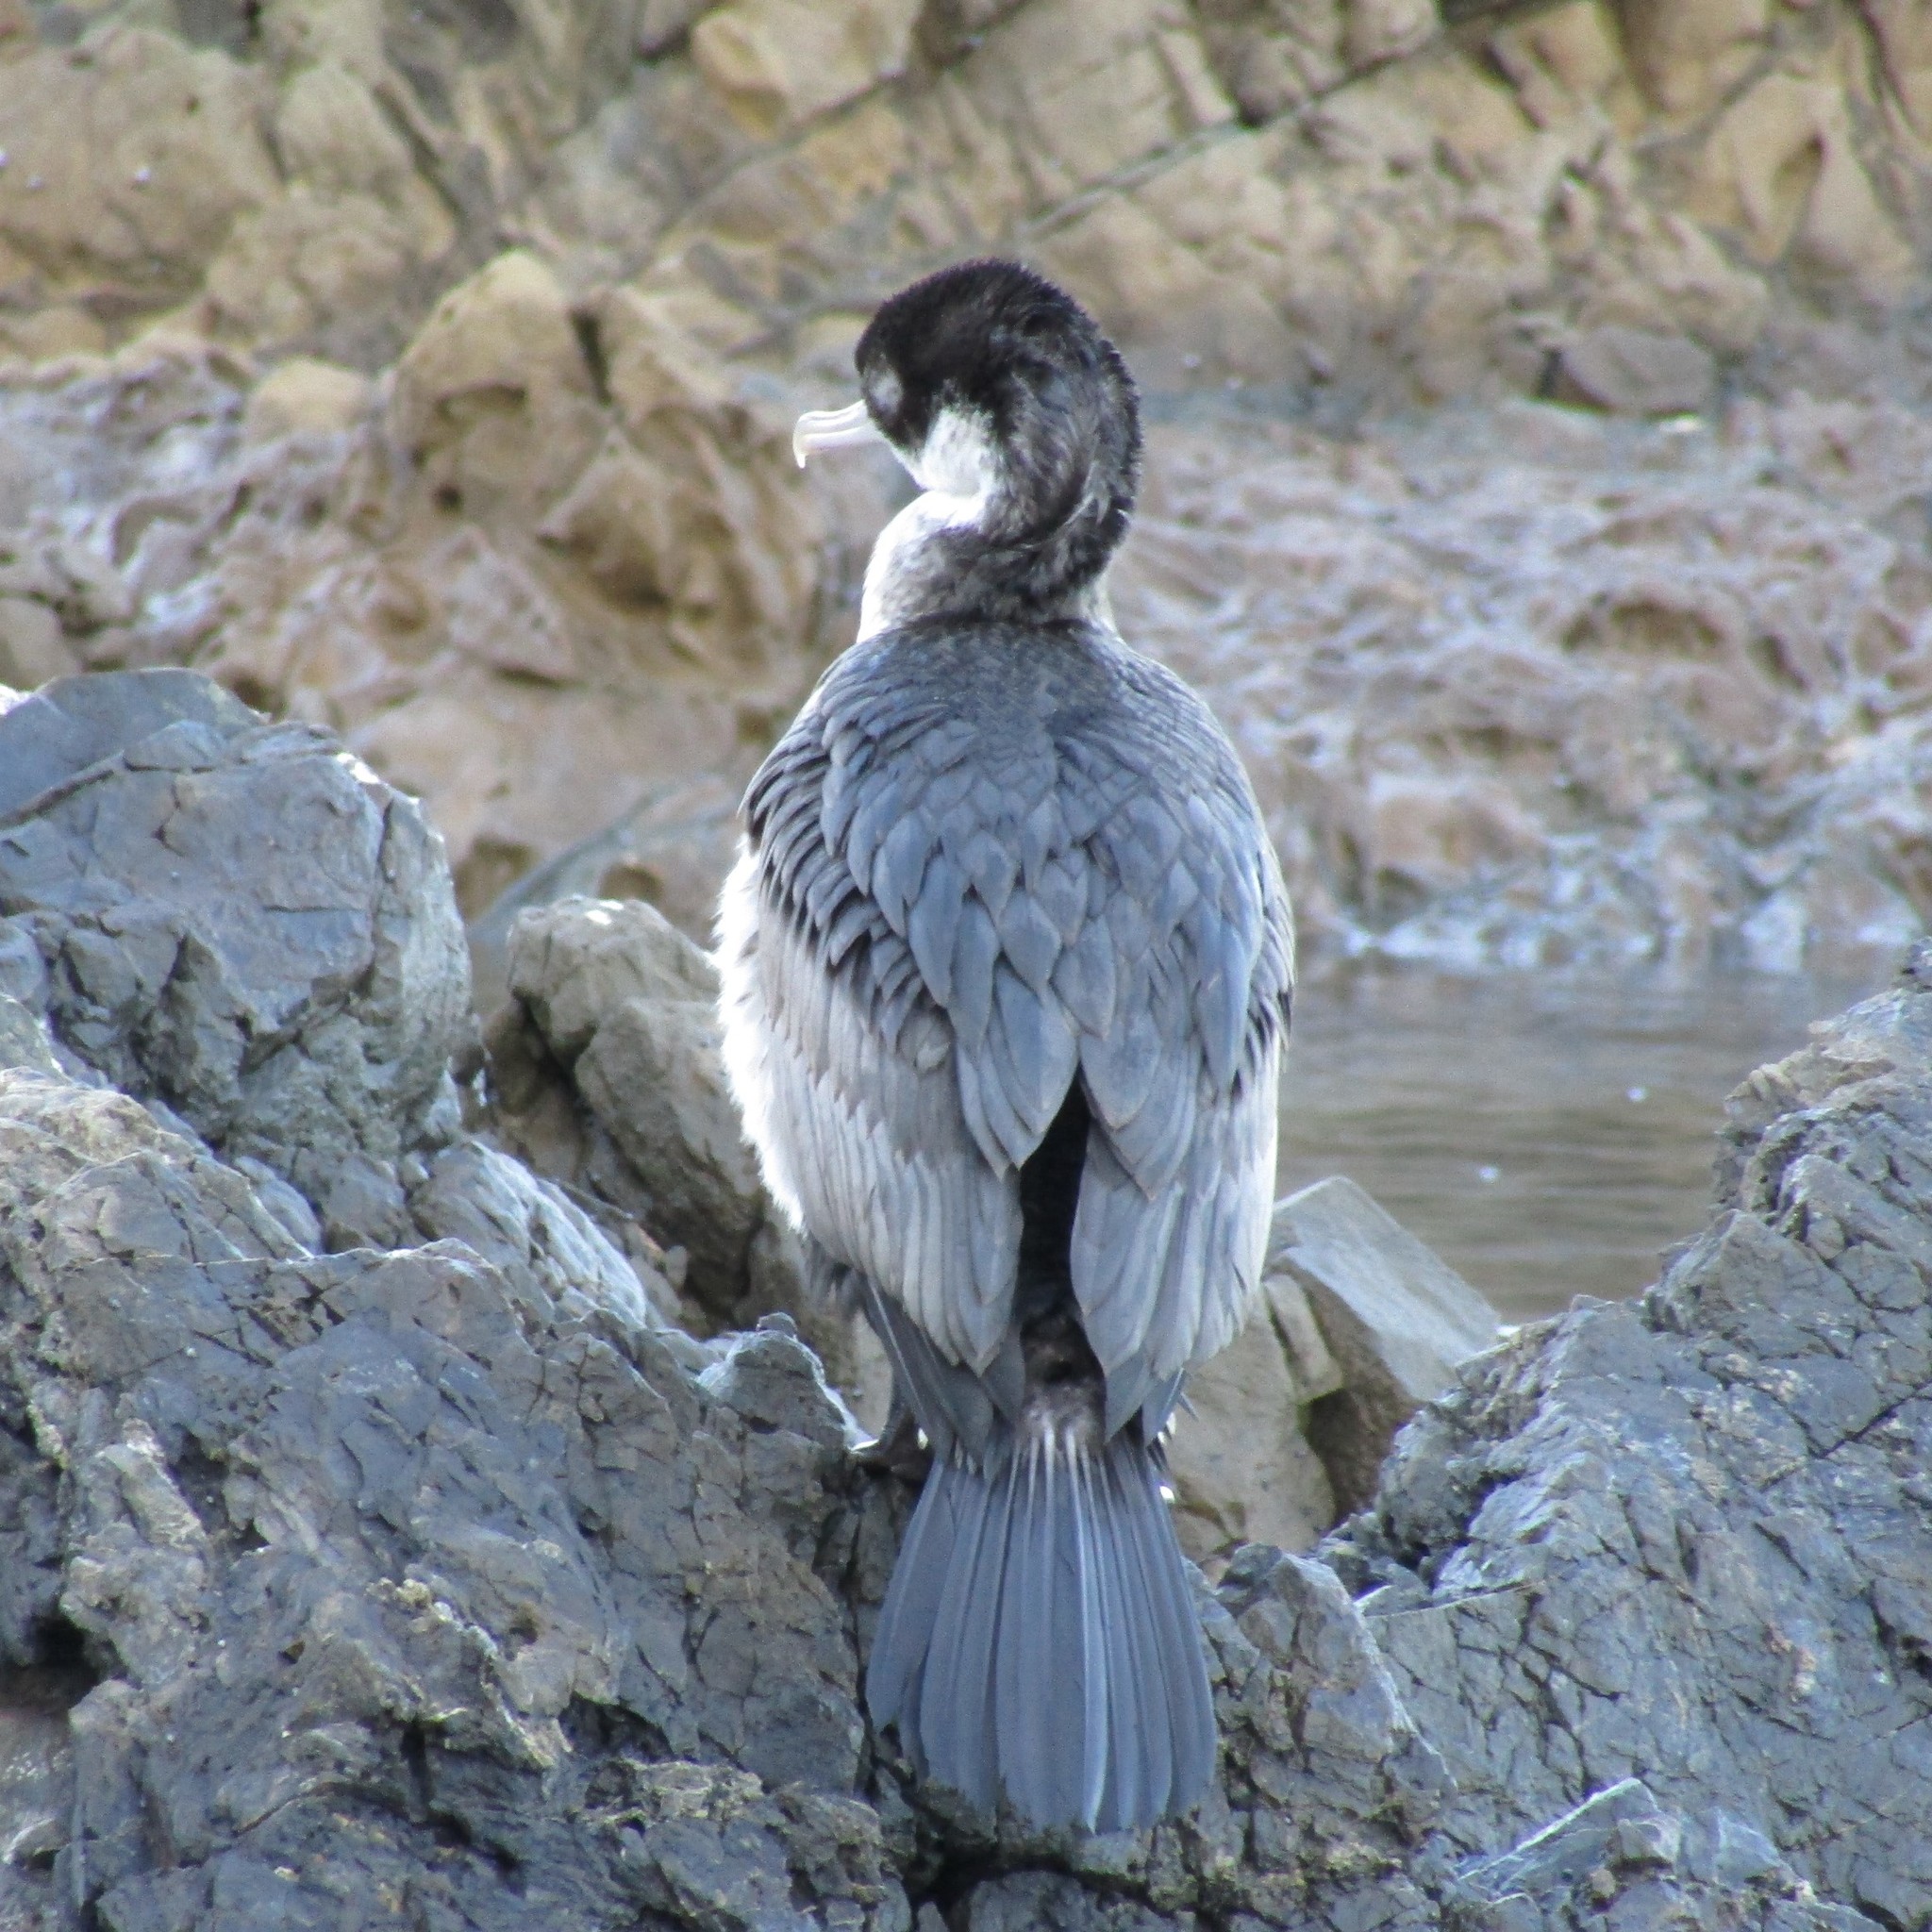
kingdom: Animalia
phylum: Chordata
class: Aves
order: Suliformes
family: Phalacrocoracidae
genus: Phalacrocorax
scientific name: Phalacrocorax varius
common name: Pied cormorant
